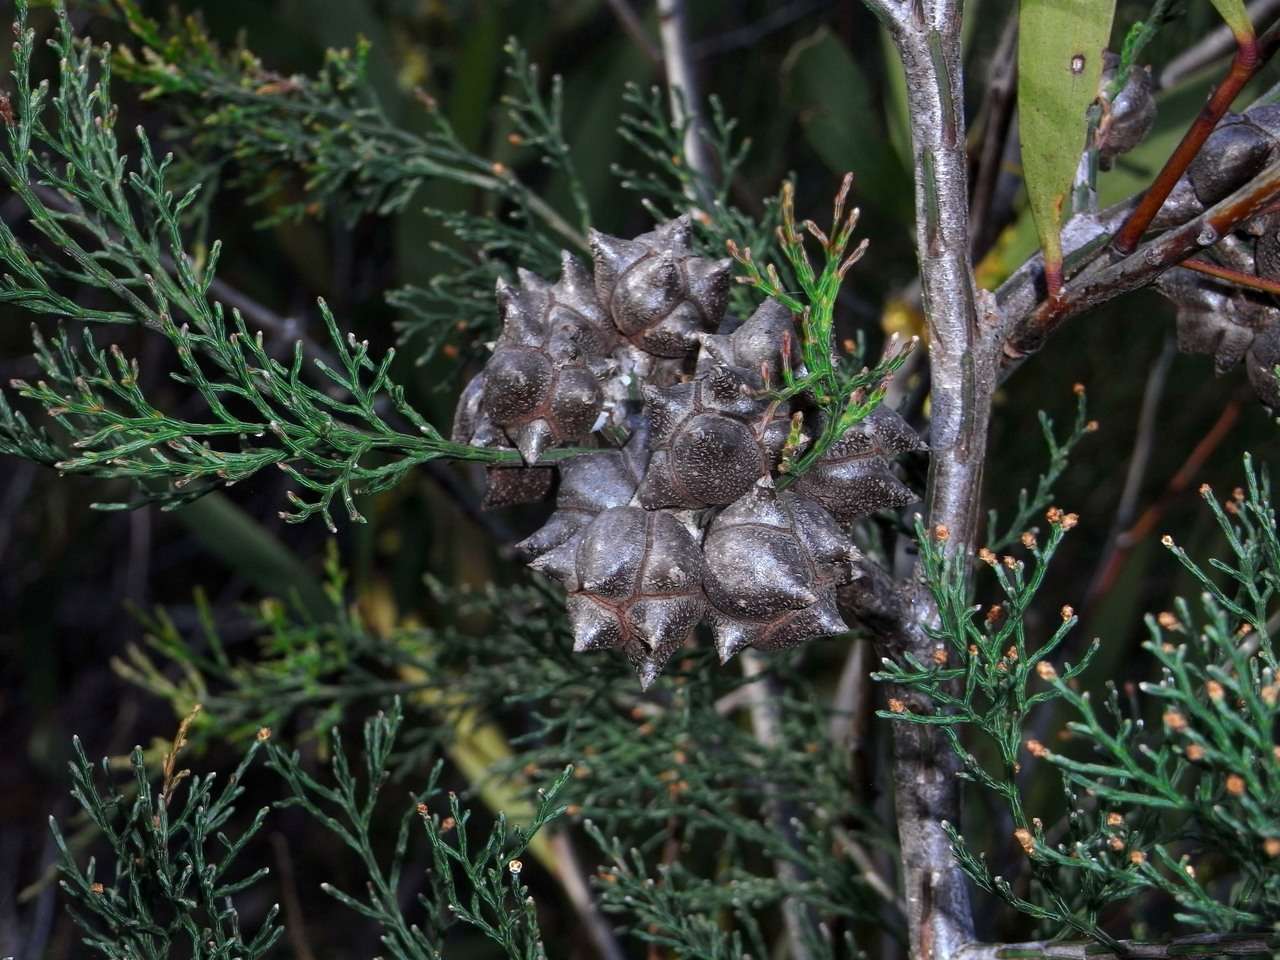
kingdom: Plantae
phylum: Tracheophyta
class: Pinopsida
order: Pinales
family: Cupressaceae
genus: Callitris
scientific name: Callitris rhomboidea
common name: Illawara mountain pine
